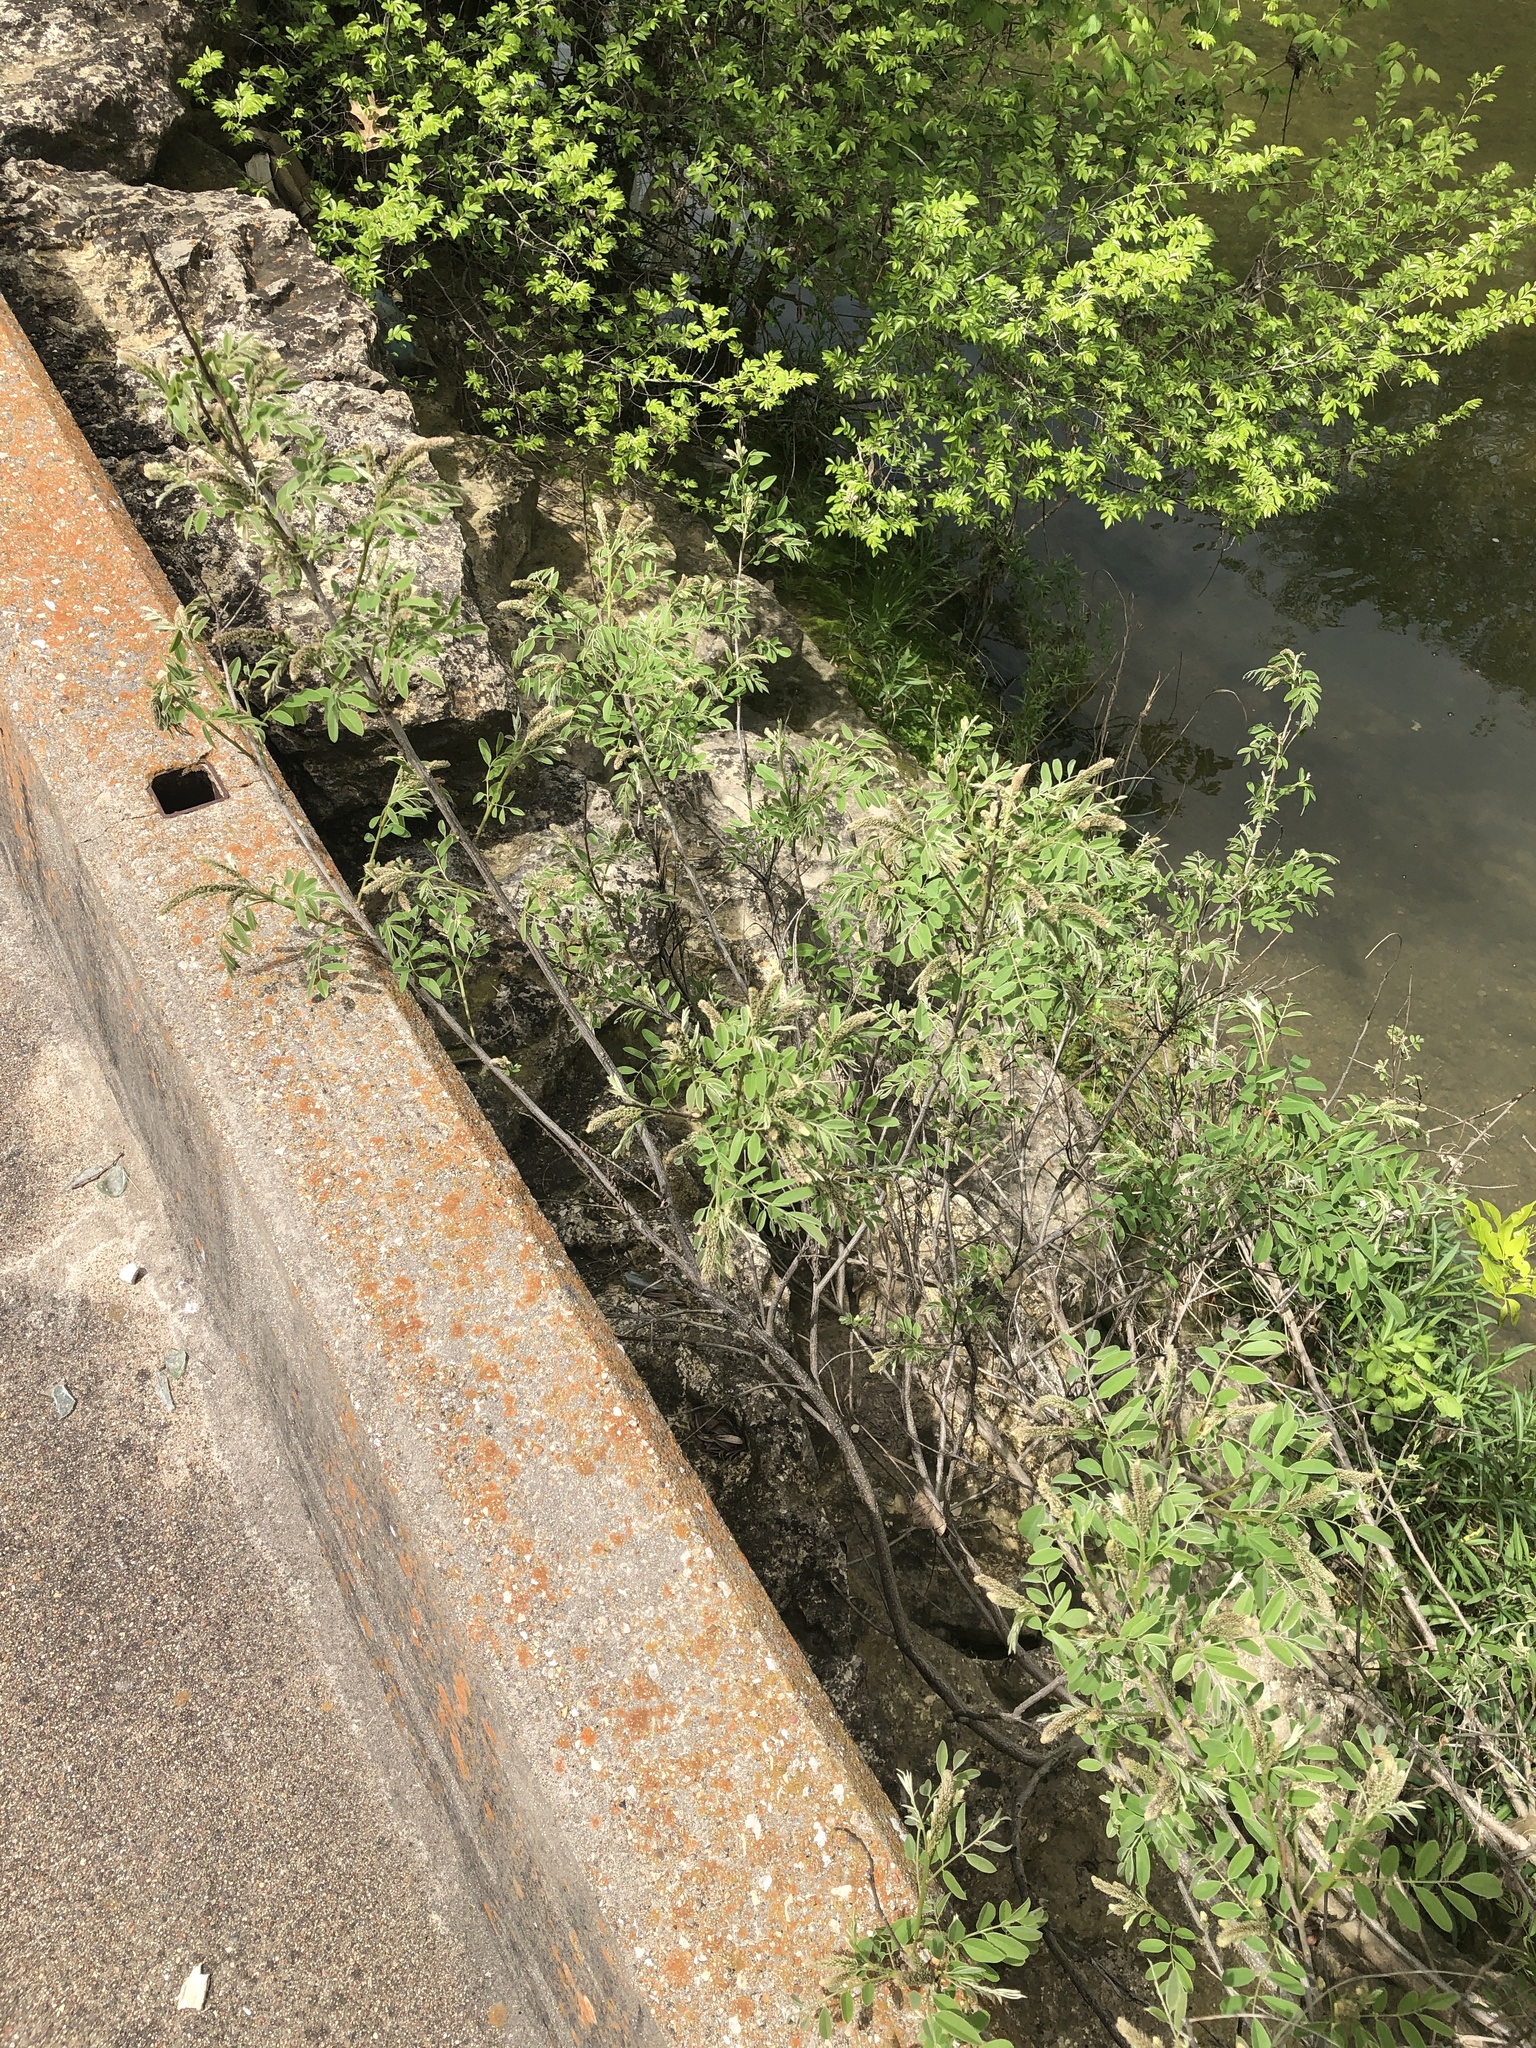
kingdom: Plantae
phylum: Tracheophyta
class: Magnoliopsida
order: Fabales
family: Fabaceae
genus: Amorpha
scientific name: Amorpha fruticosa
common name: False indigo
